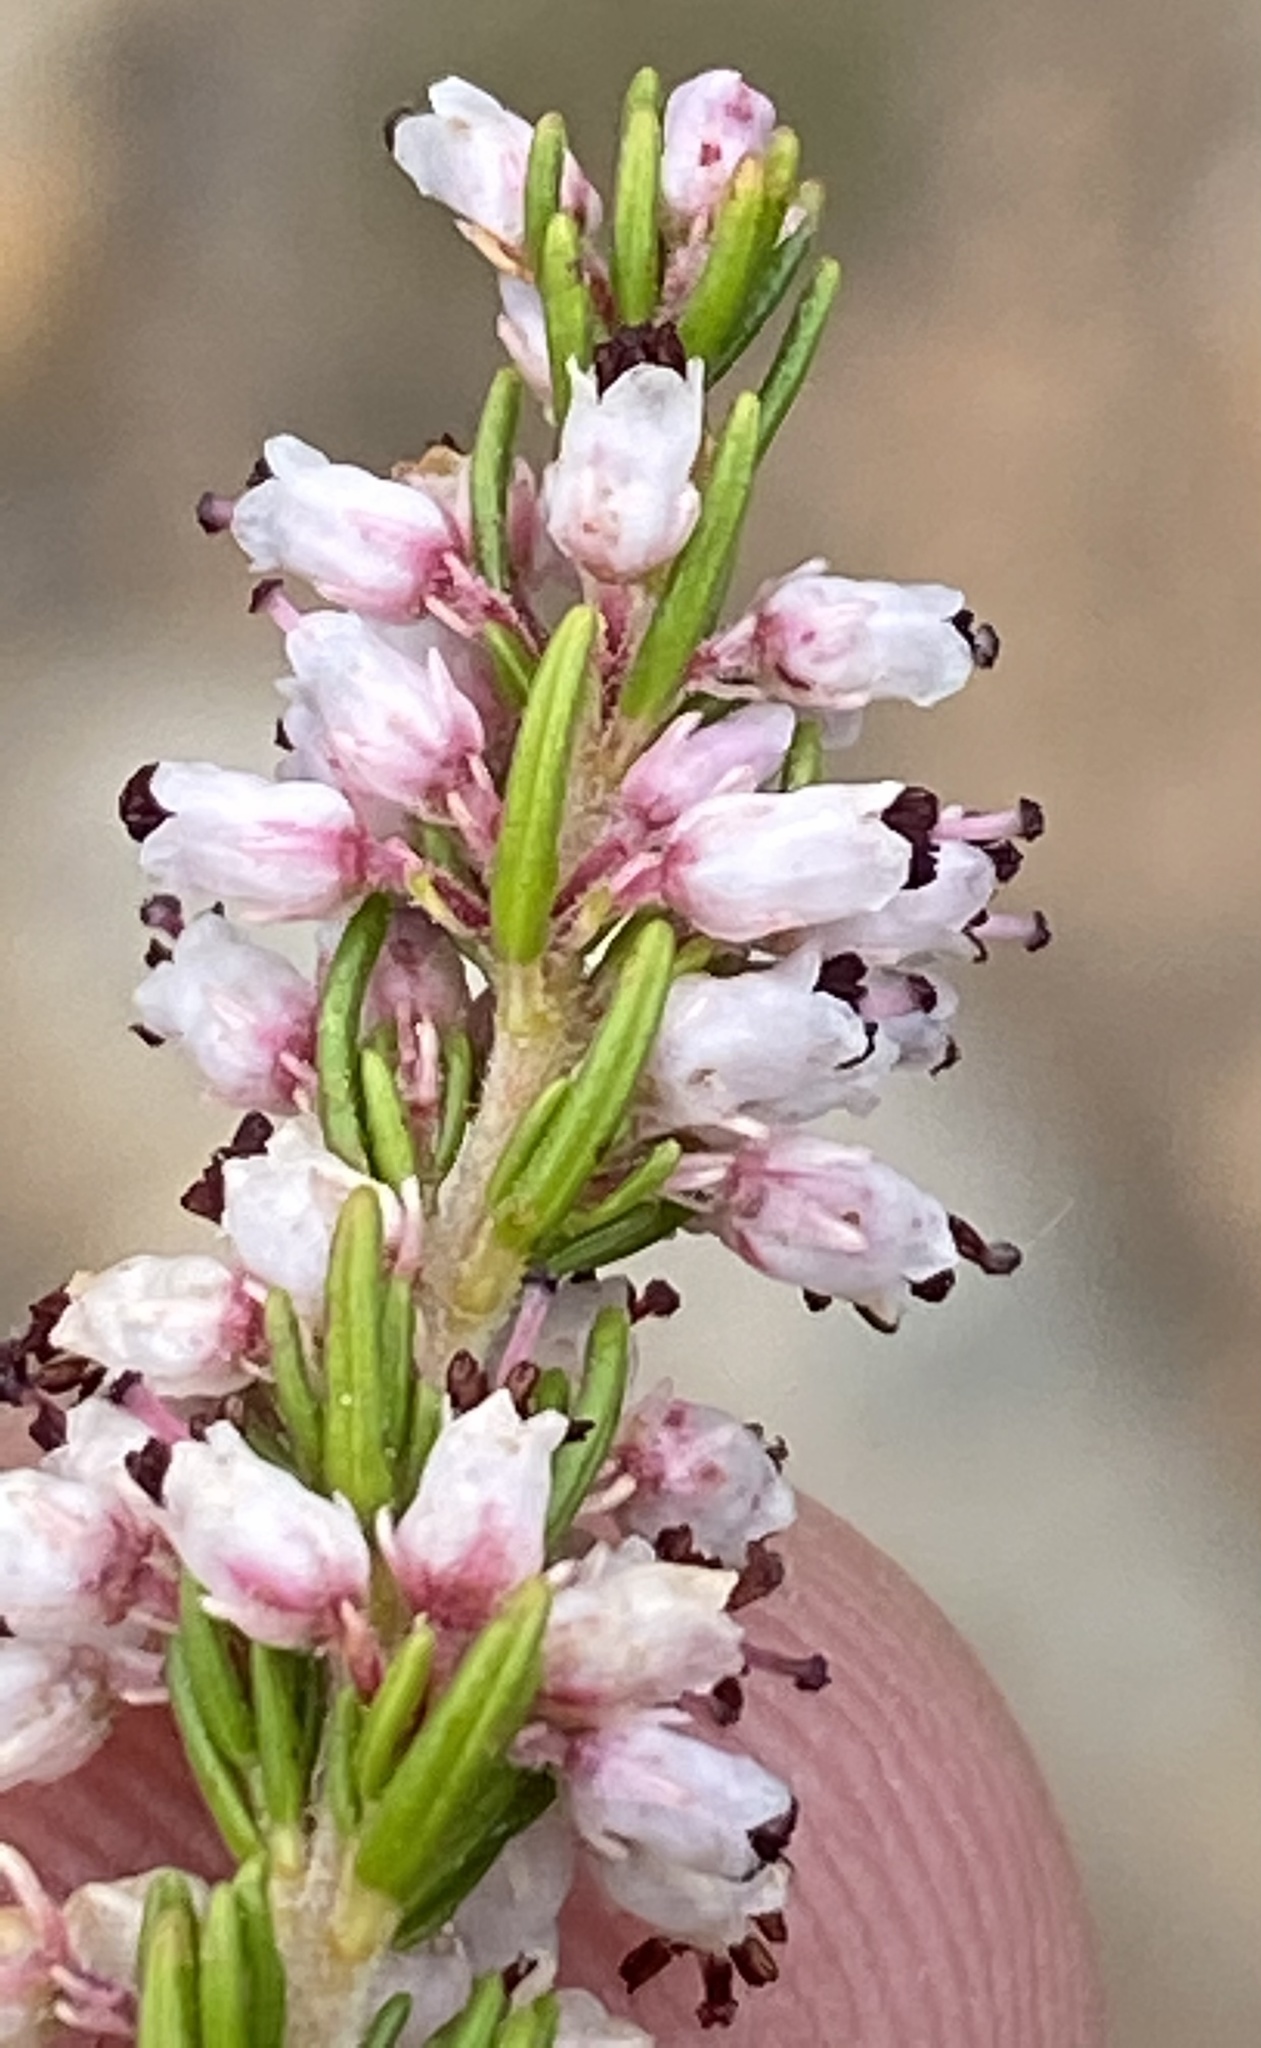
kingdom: Plantae
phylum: Tracheophyta
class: Magnoliopsida
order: Ericales
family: Ericaceae
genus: Erica
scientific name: Erica trivialis
